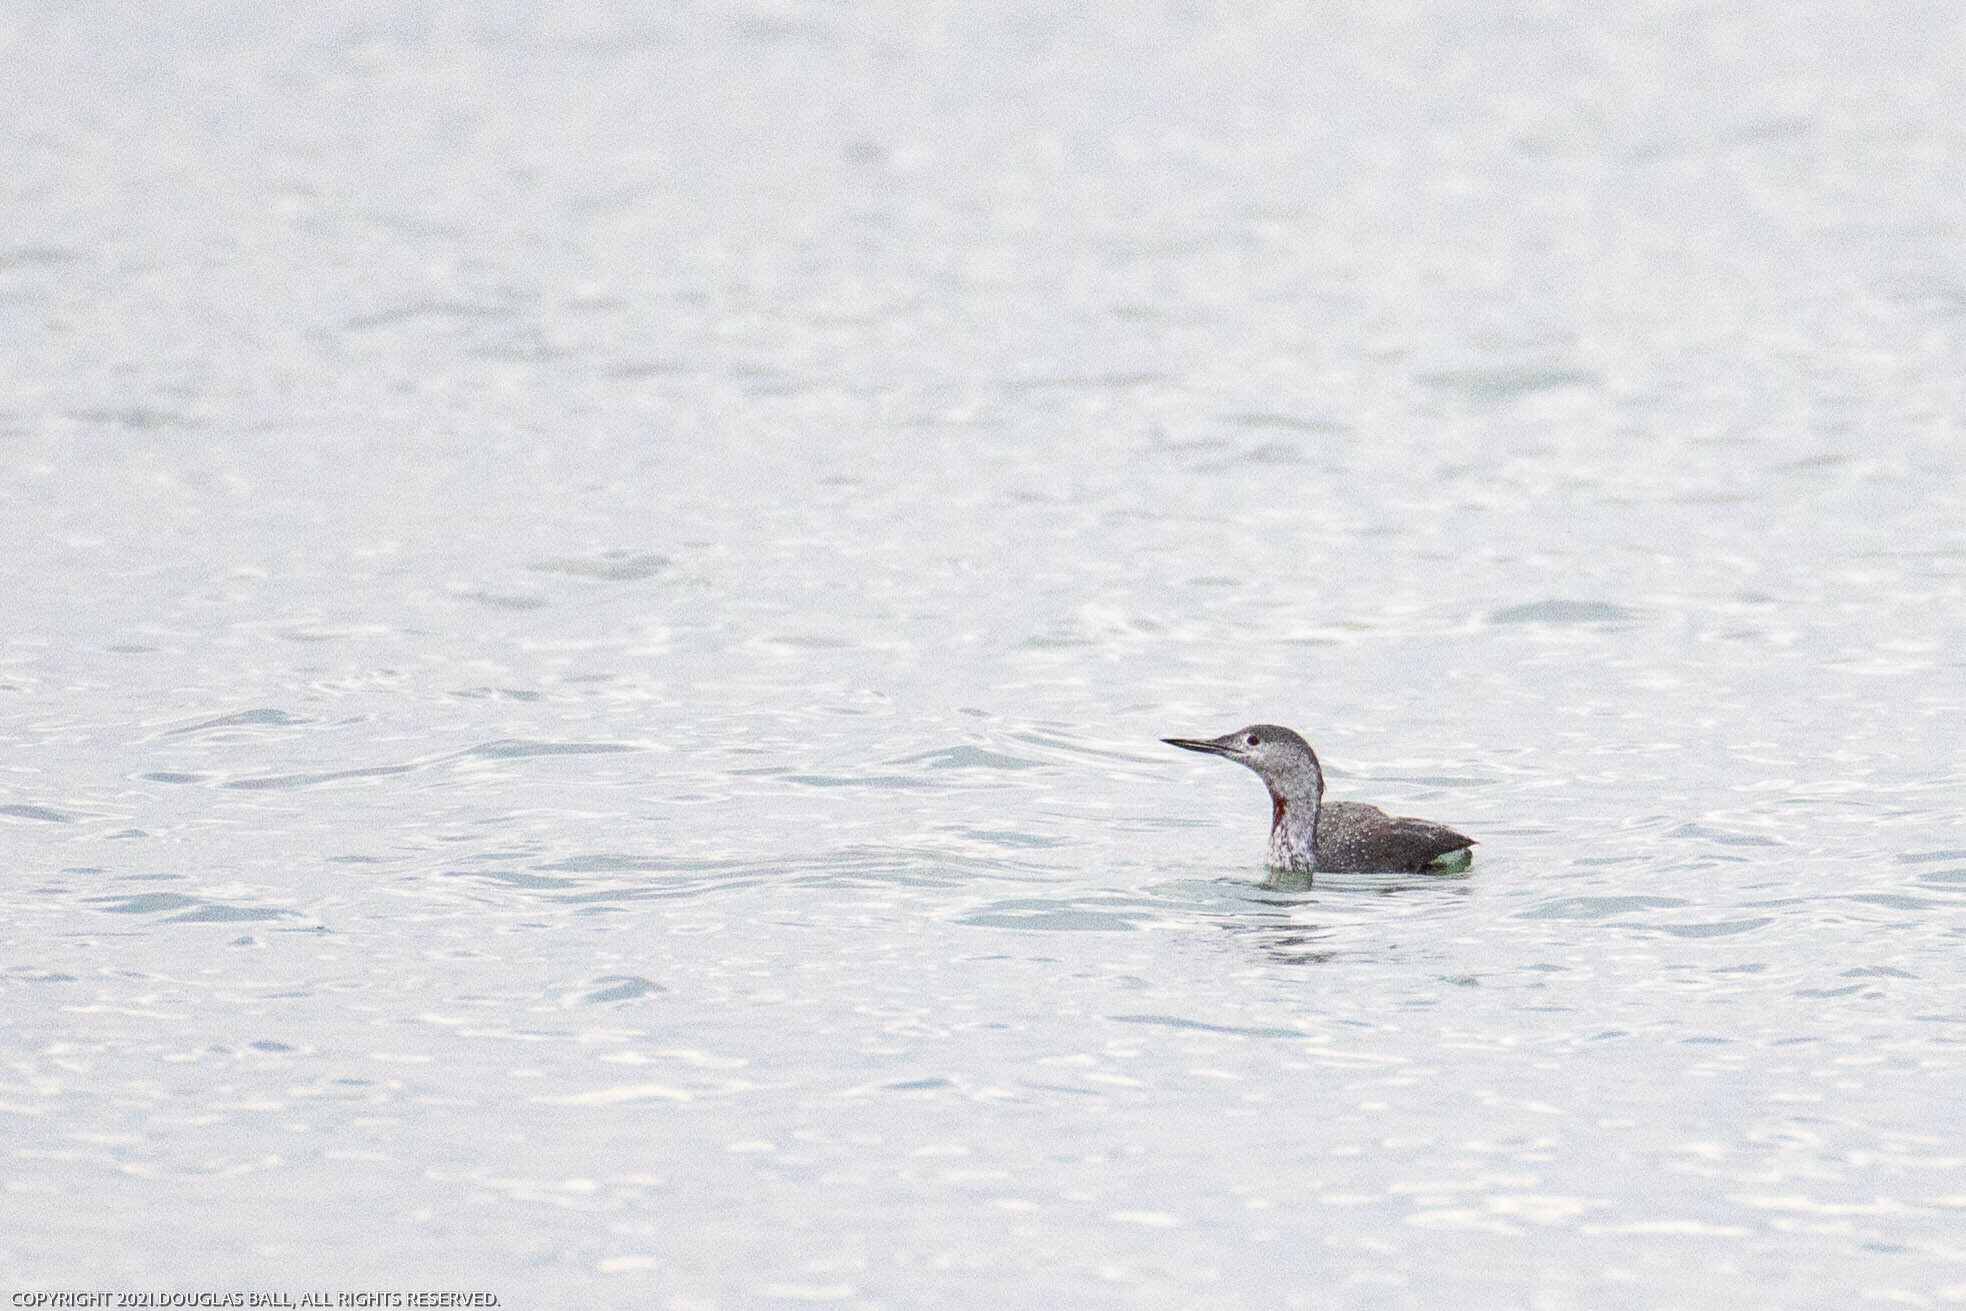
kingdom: Animalia
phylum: Chordata
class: Aves
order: Gaviiformes
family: Gaviidae
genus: Gavia
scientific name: Gavia stellata
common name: Red-throated loon
